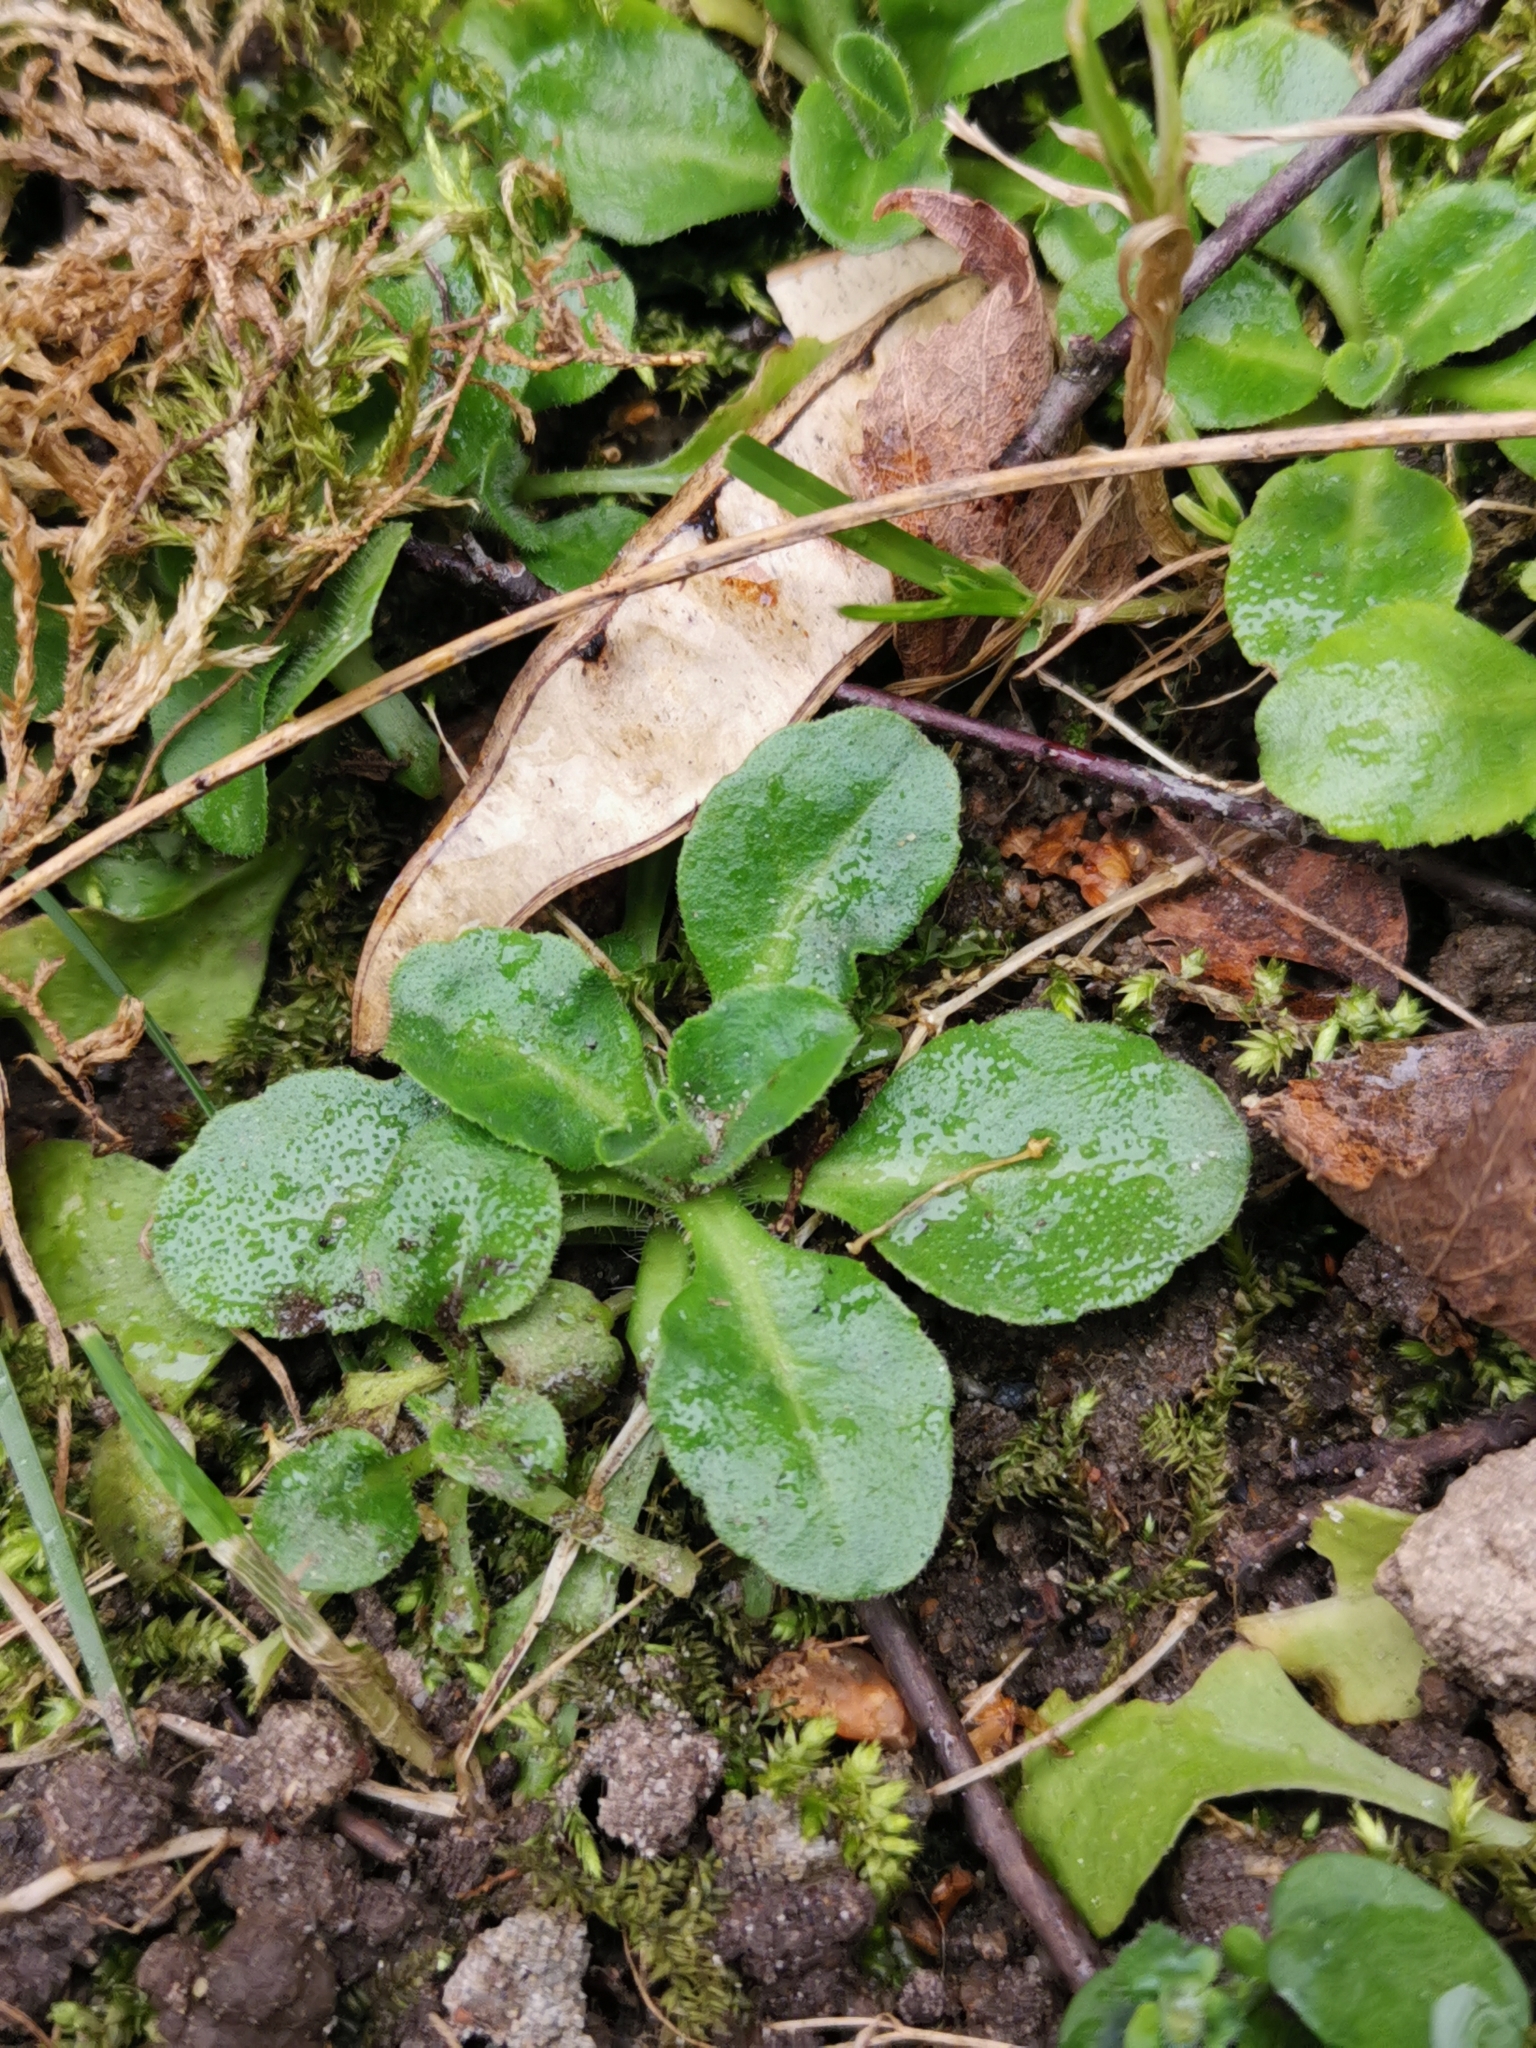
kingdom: Plantae
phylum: Tracheophyta
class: Magnoliopsida
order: Asterales
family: Asteraceae
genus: Bellis
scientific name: Bellis perennis
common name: Lawndaisy
